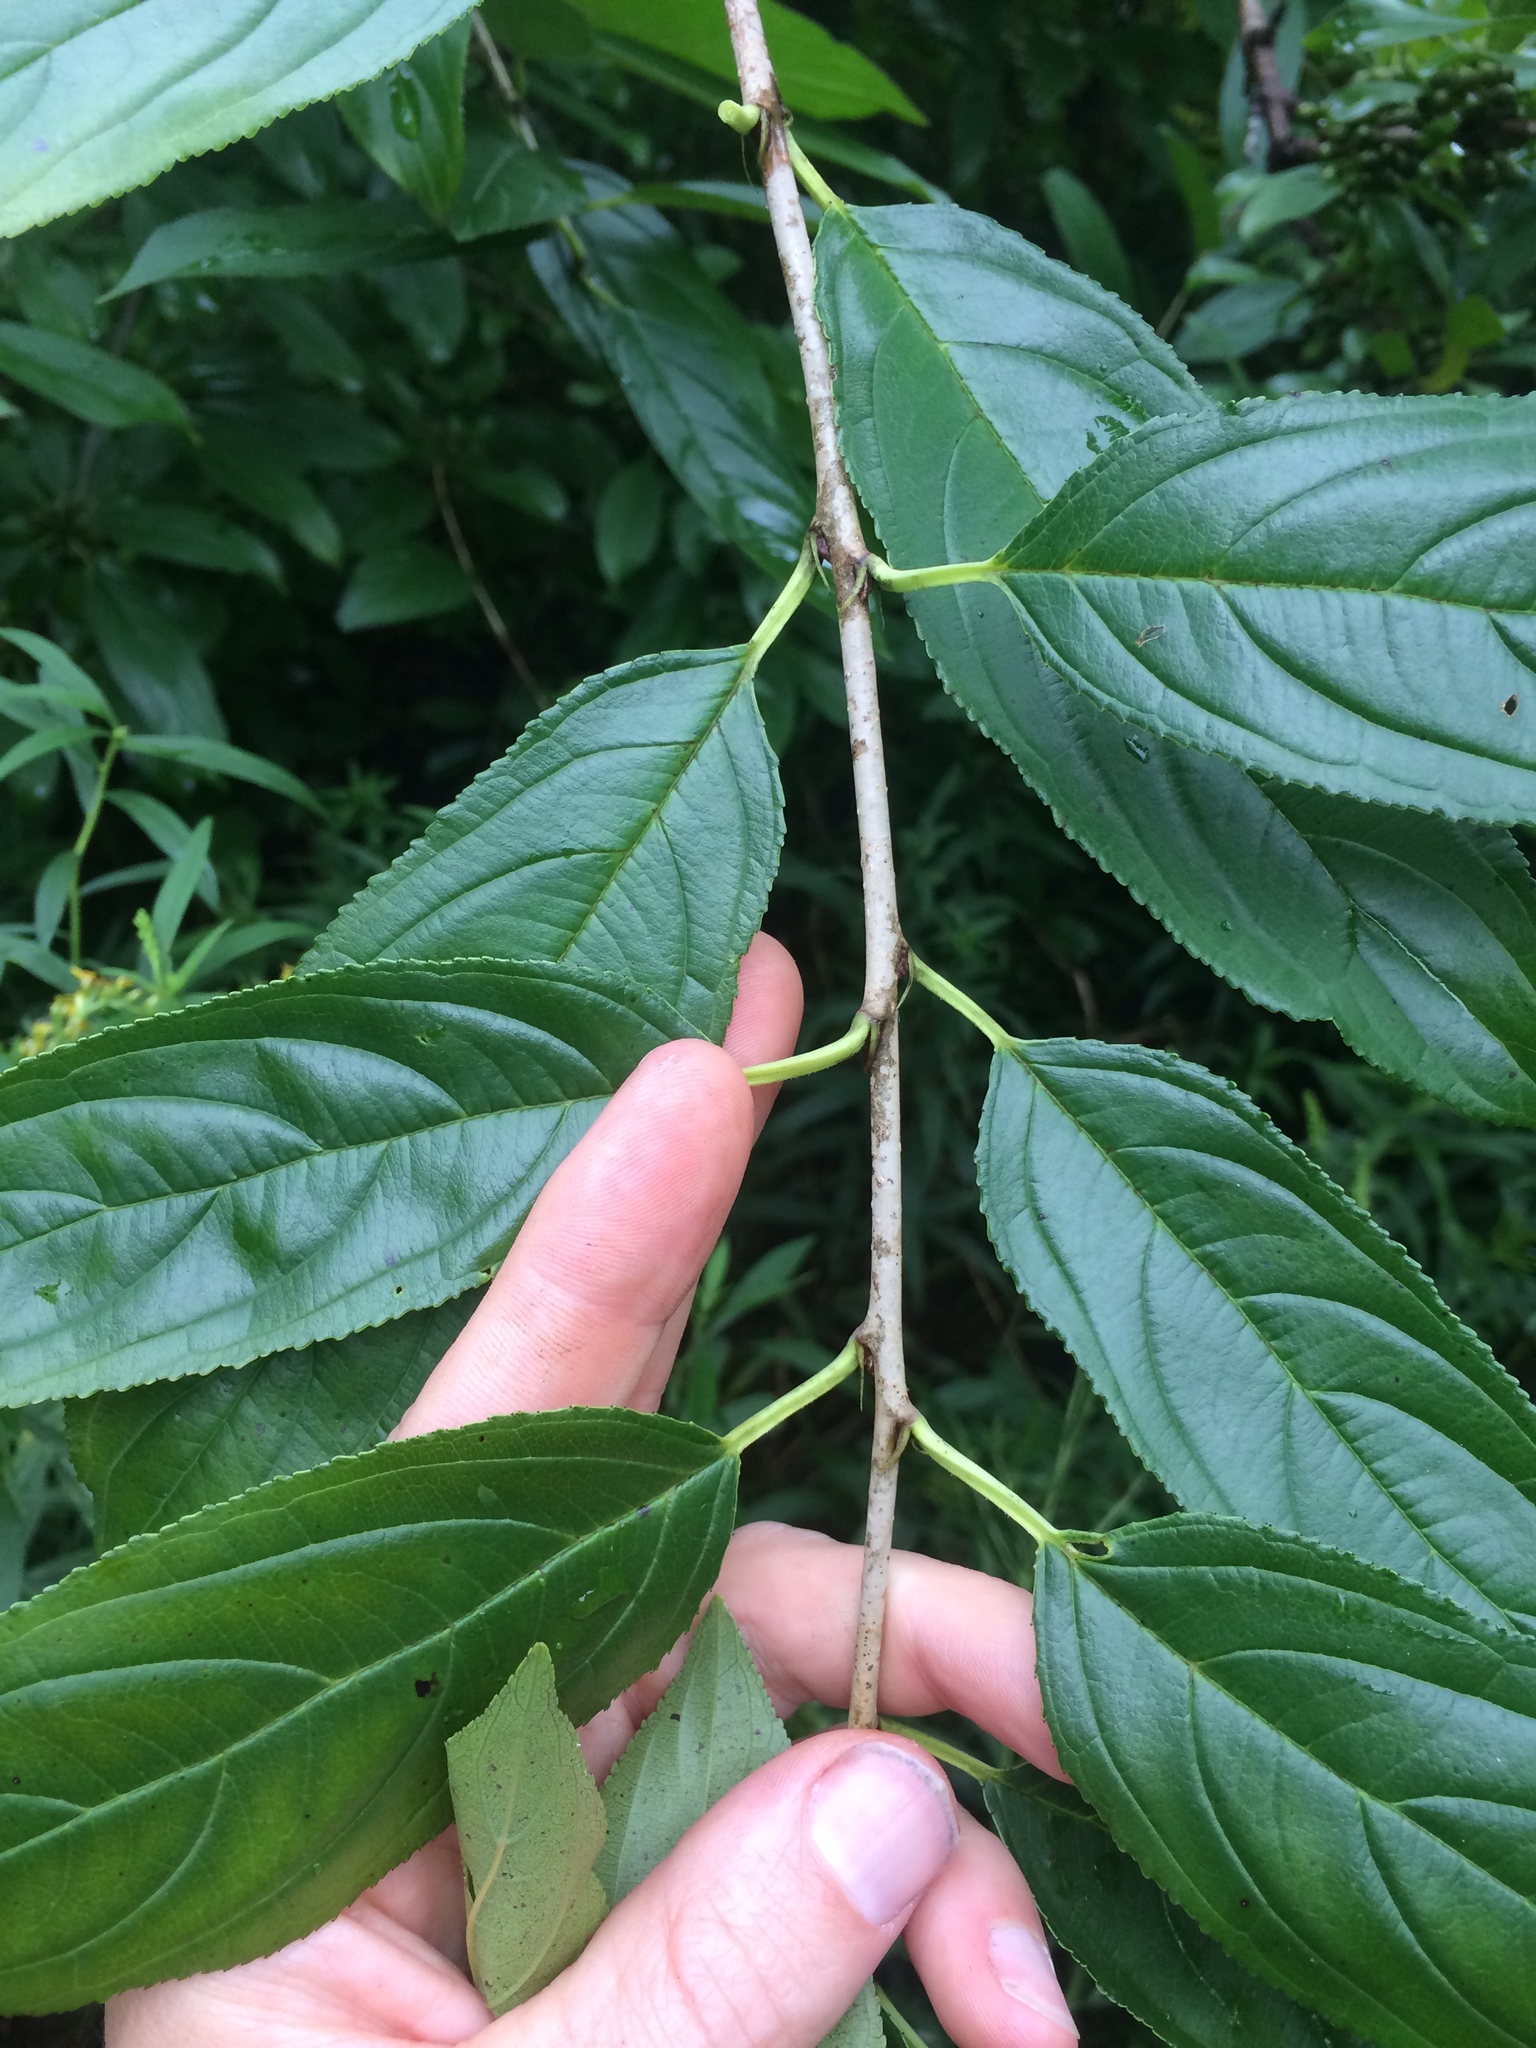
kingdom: Plantae
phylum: Tracheophyta
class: Magnoliopsida
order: Rosales
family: Rhamnaceae
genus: Rhamnus
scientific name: Rhamnus utilis
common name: Chinese buckthorn
